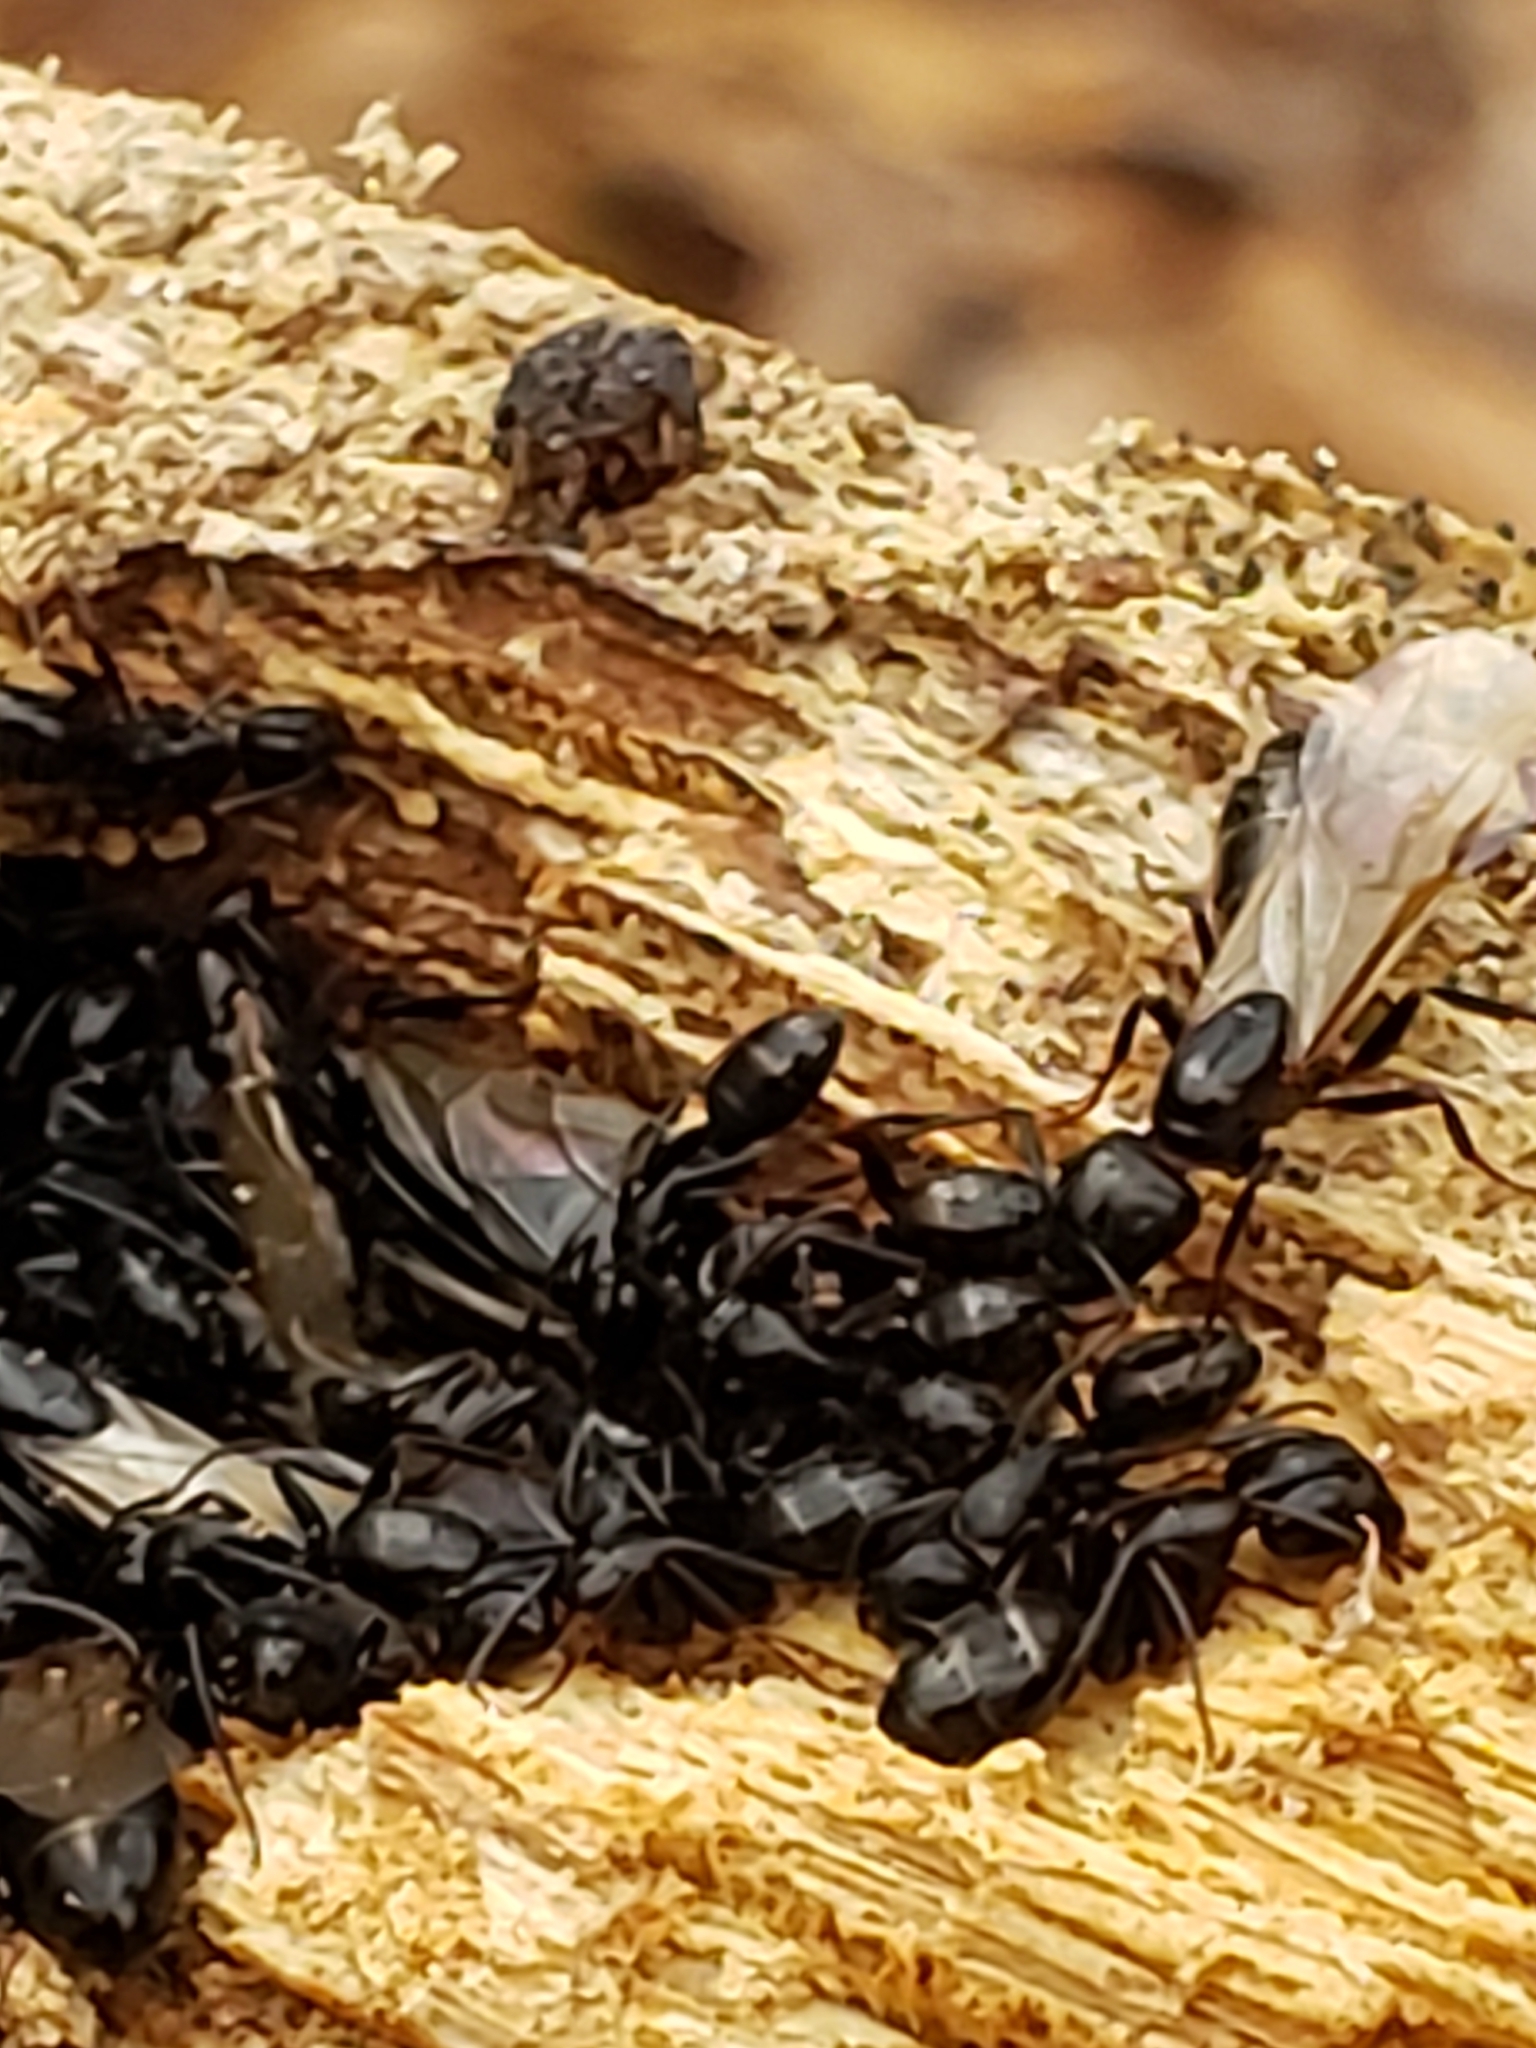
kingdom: Animalia
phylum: Arthropoda
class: Insecta
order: Hymenoptera
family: Formicidae
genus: Camponotus
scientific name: Camponotus nearcticus
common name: Smaller carpenter ant
